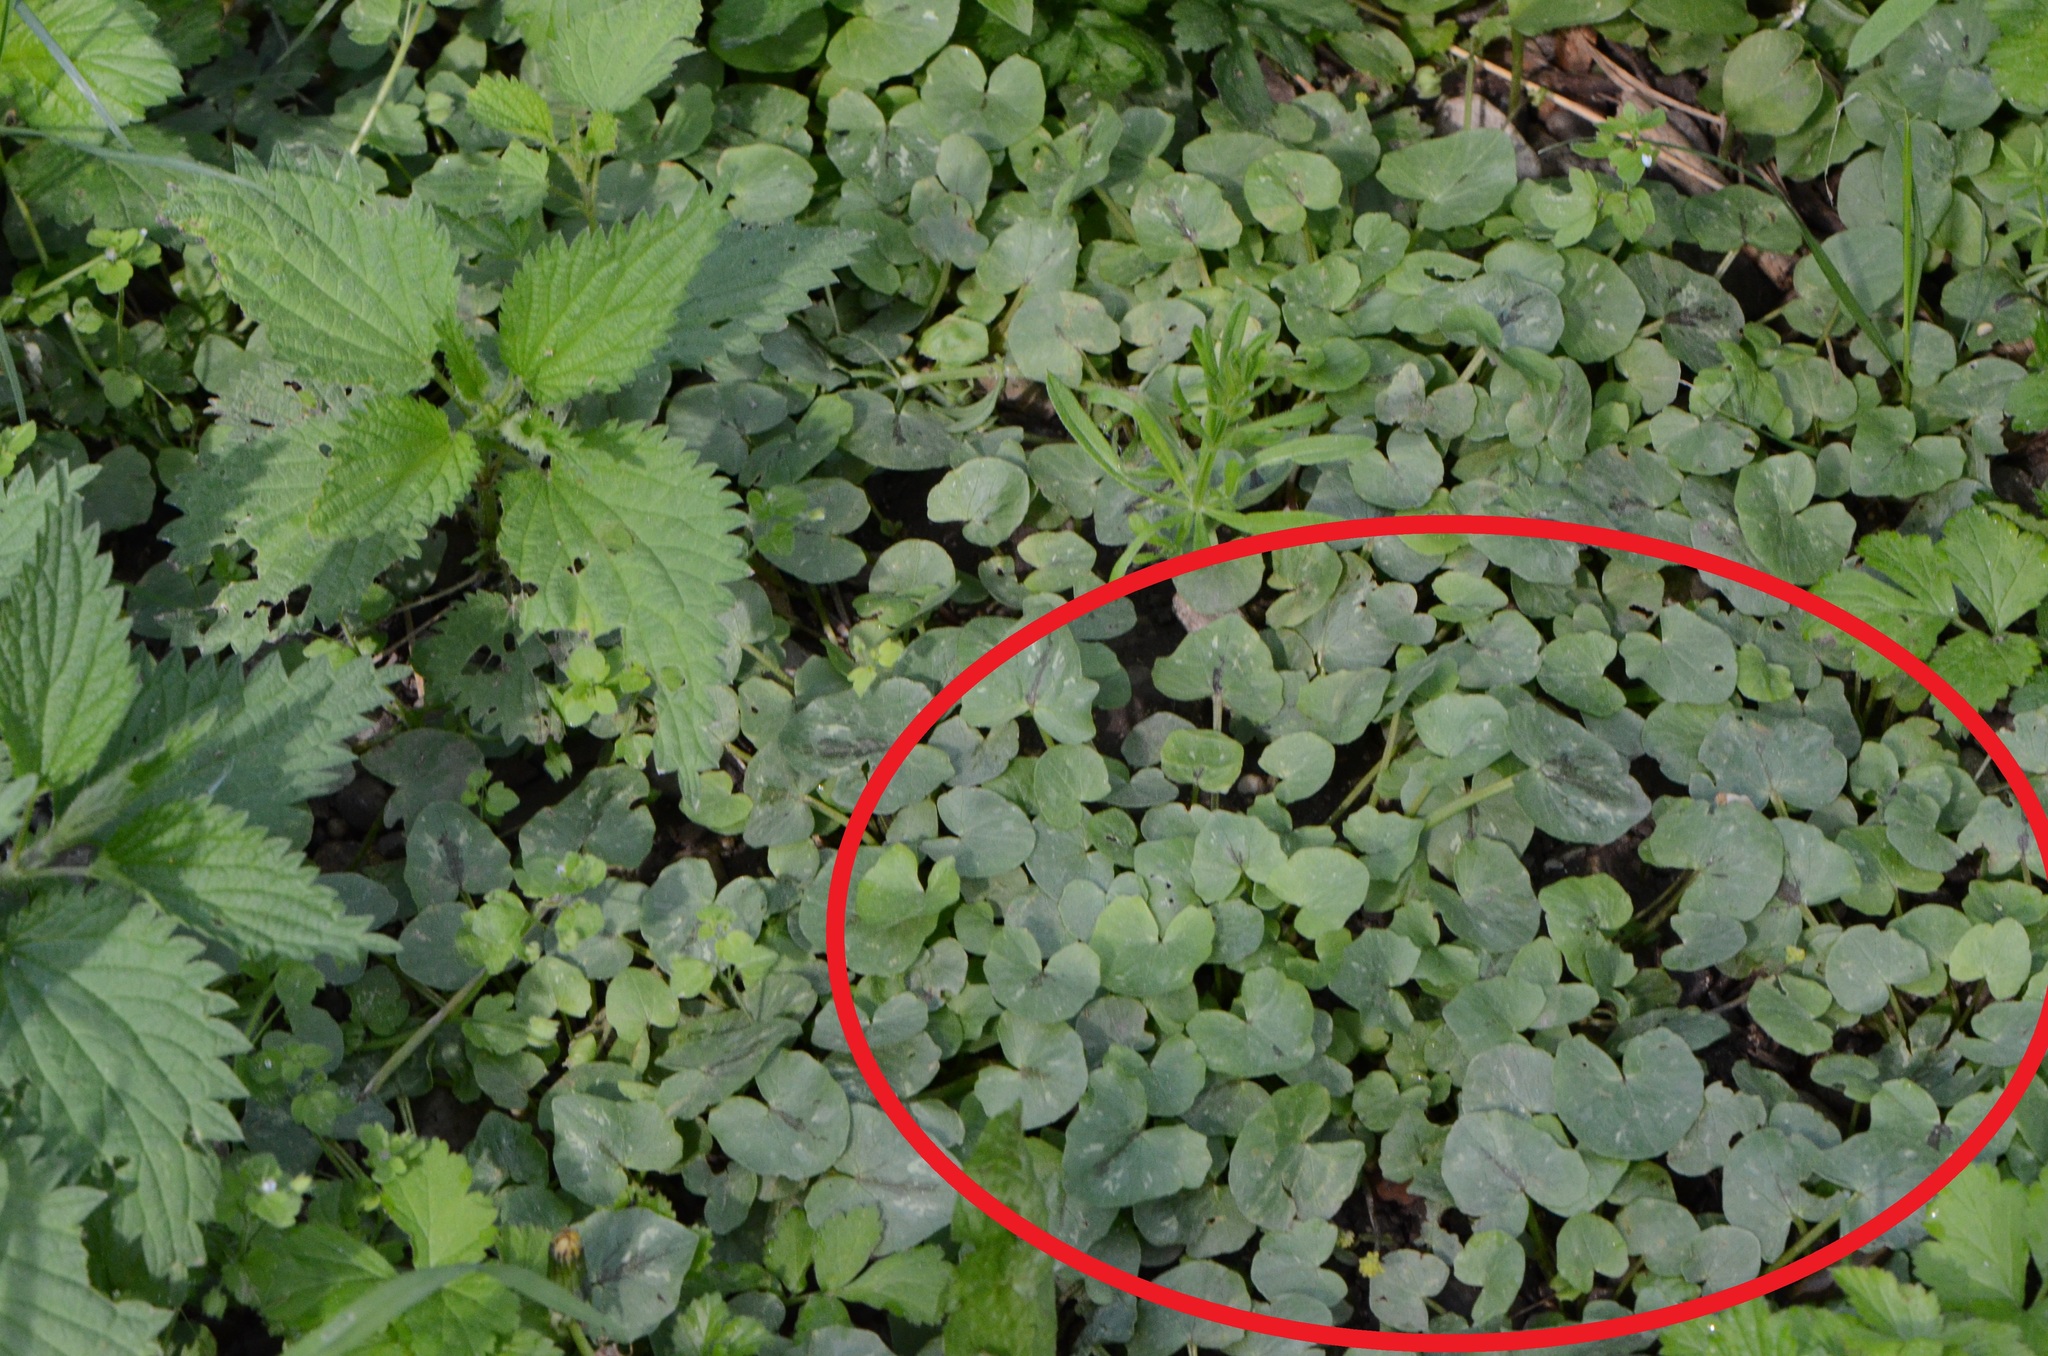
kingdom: Plantae
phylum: Tracheophyta
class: Magnoliopsida
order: Ranunculales
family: Ranunculaceae
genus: Ficaria
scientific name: Ficaria verna
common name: Lesser celandine
